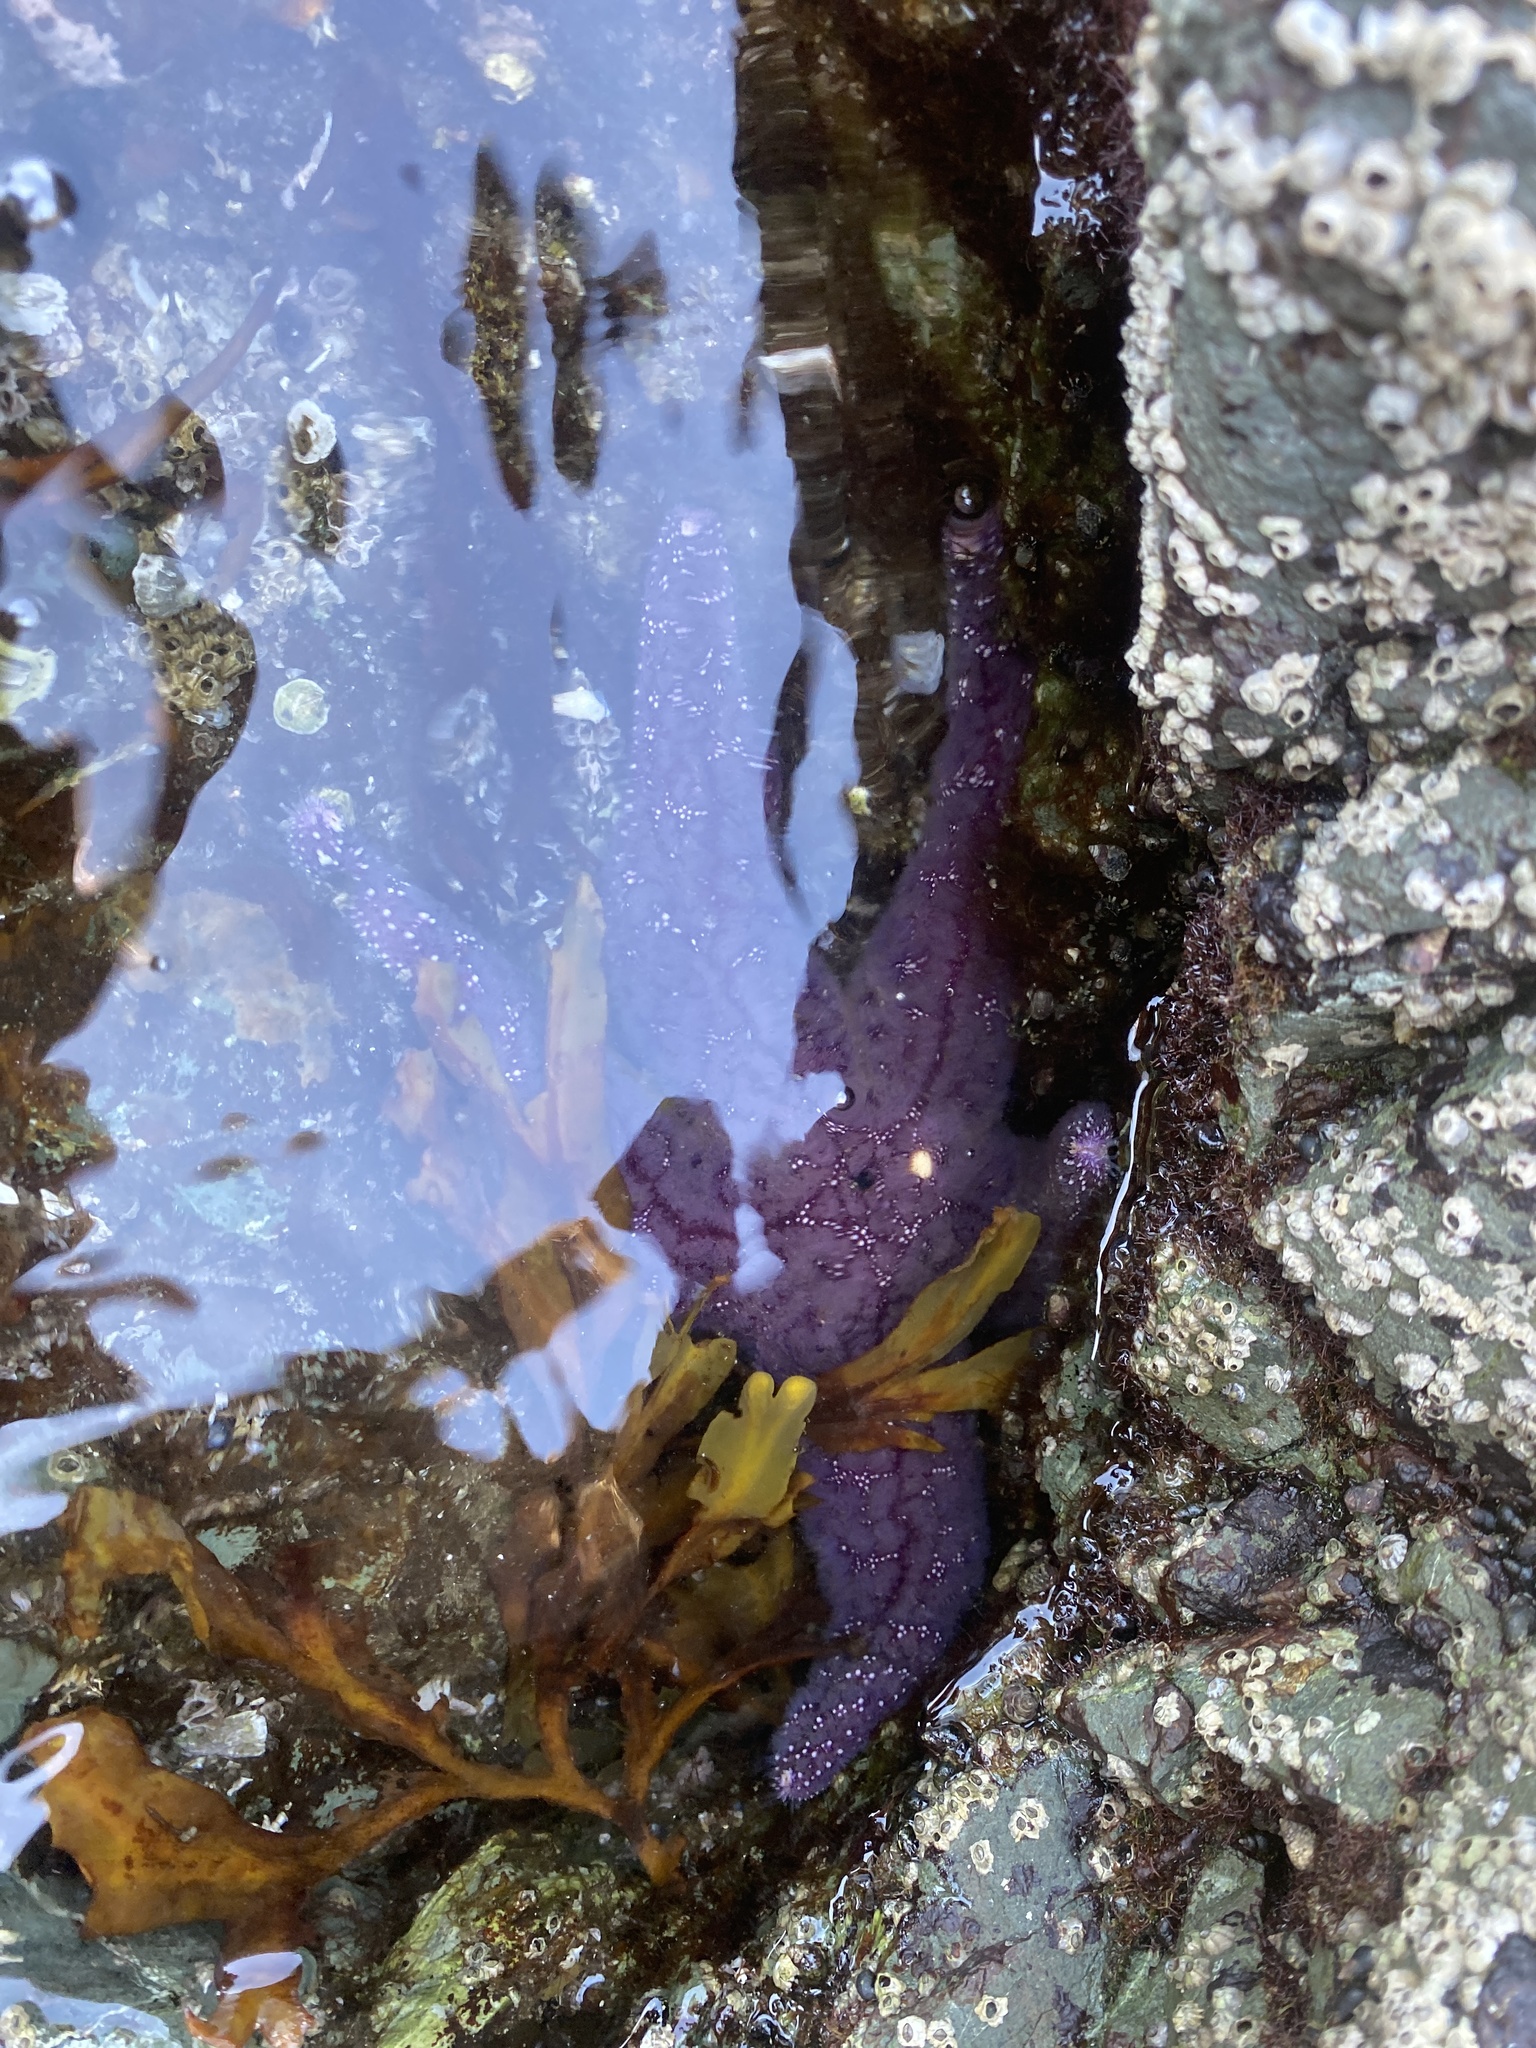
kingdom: Animalia
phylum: Echinodermata
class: Asteroidea
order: Forcipulatida
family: Asteriidae
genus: Pisaster
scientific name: Pisaster ochraceus
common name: Ochre stars
